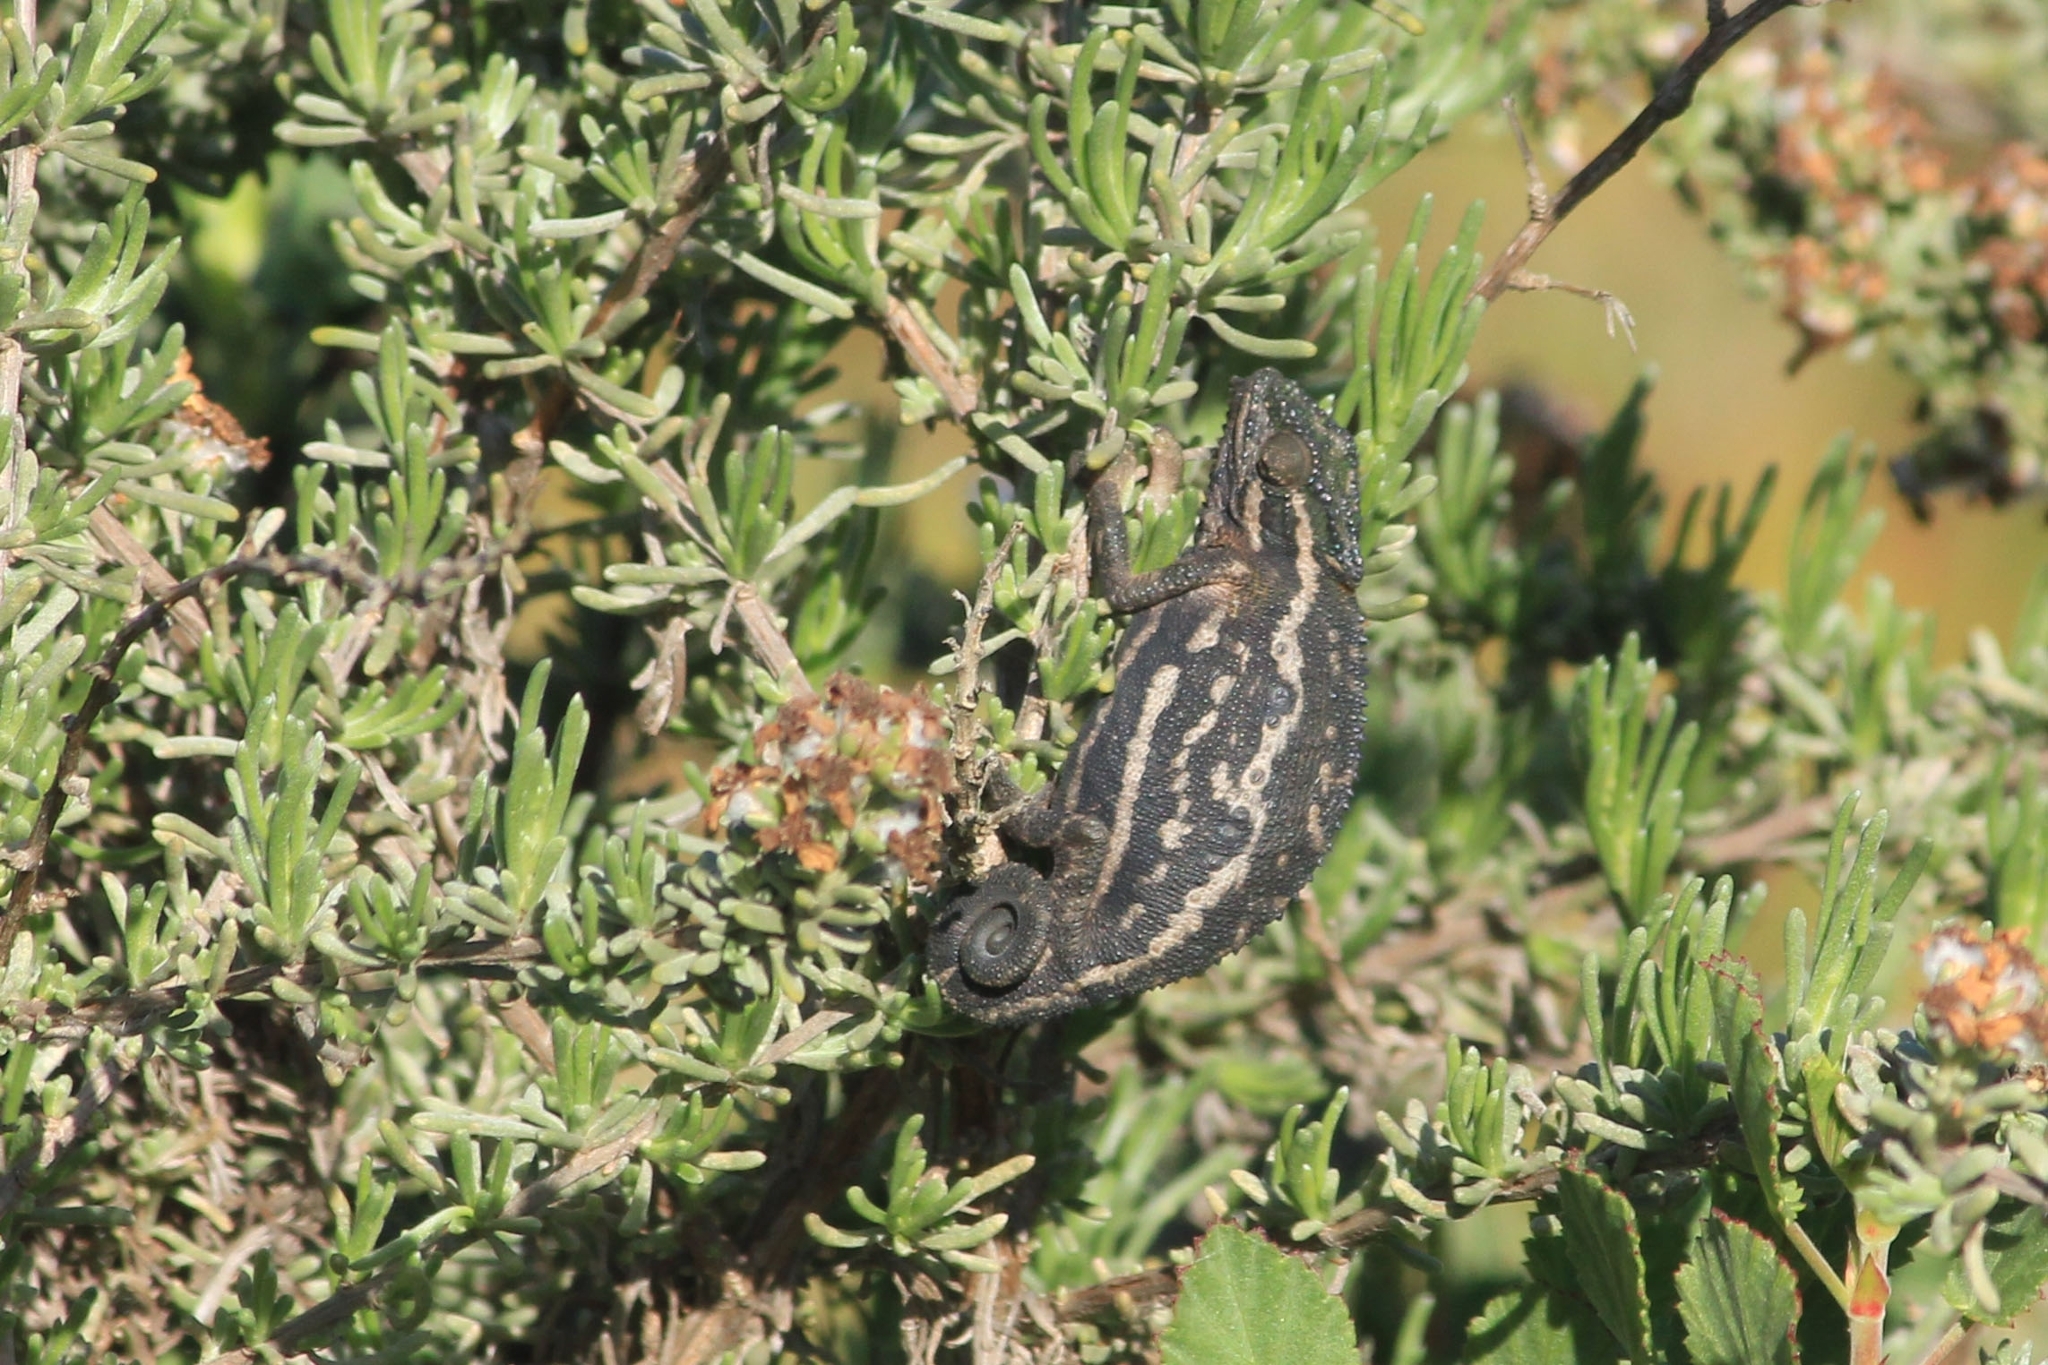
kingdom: Animalia
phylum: Chordata
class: Squamata
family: Chamaeleonidae
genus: Bradypodion
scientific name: Bradypodion pumilum
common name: Cape dwarf chameleon
